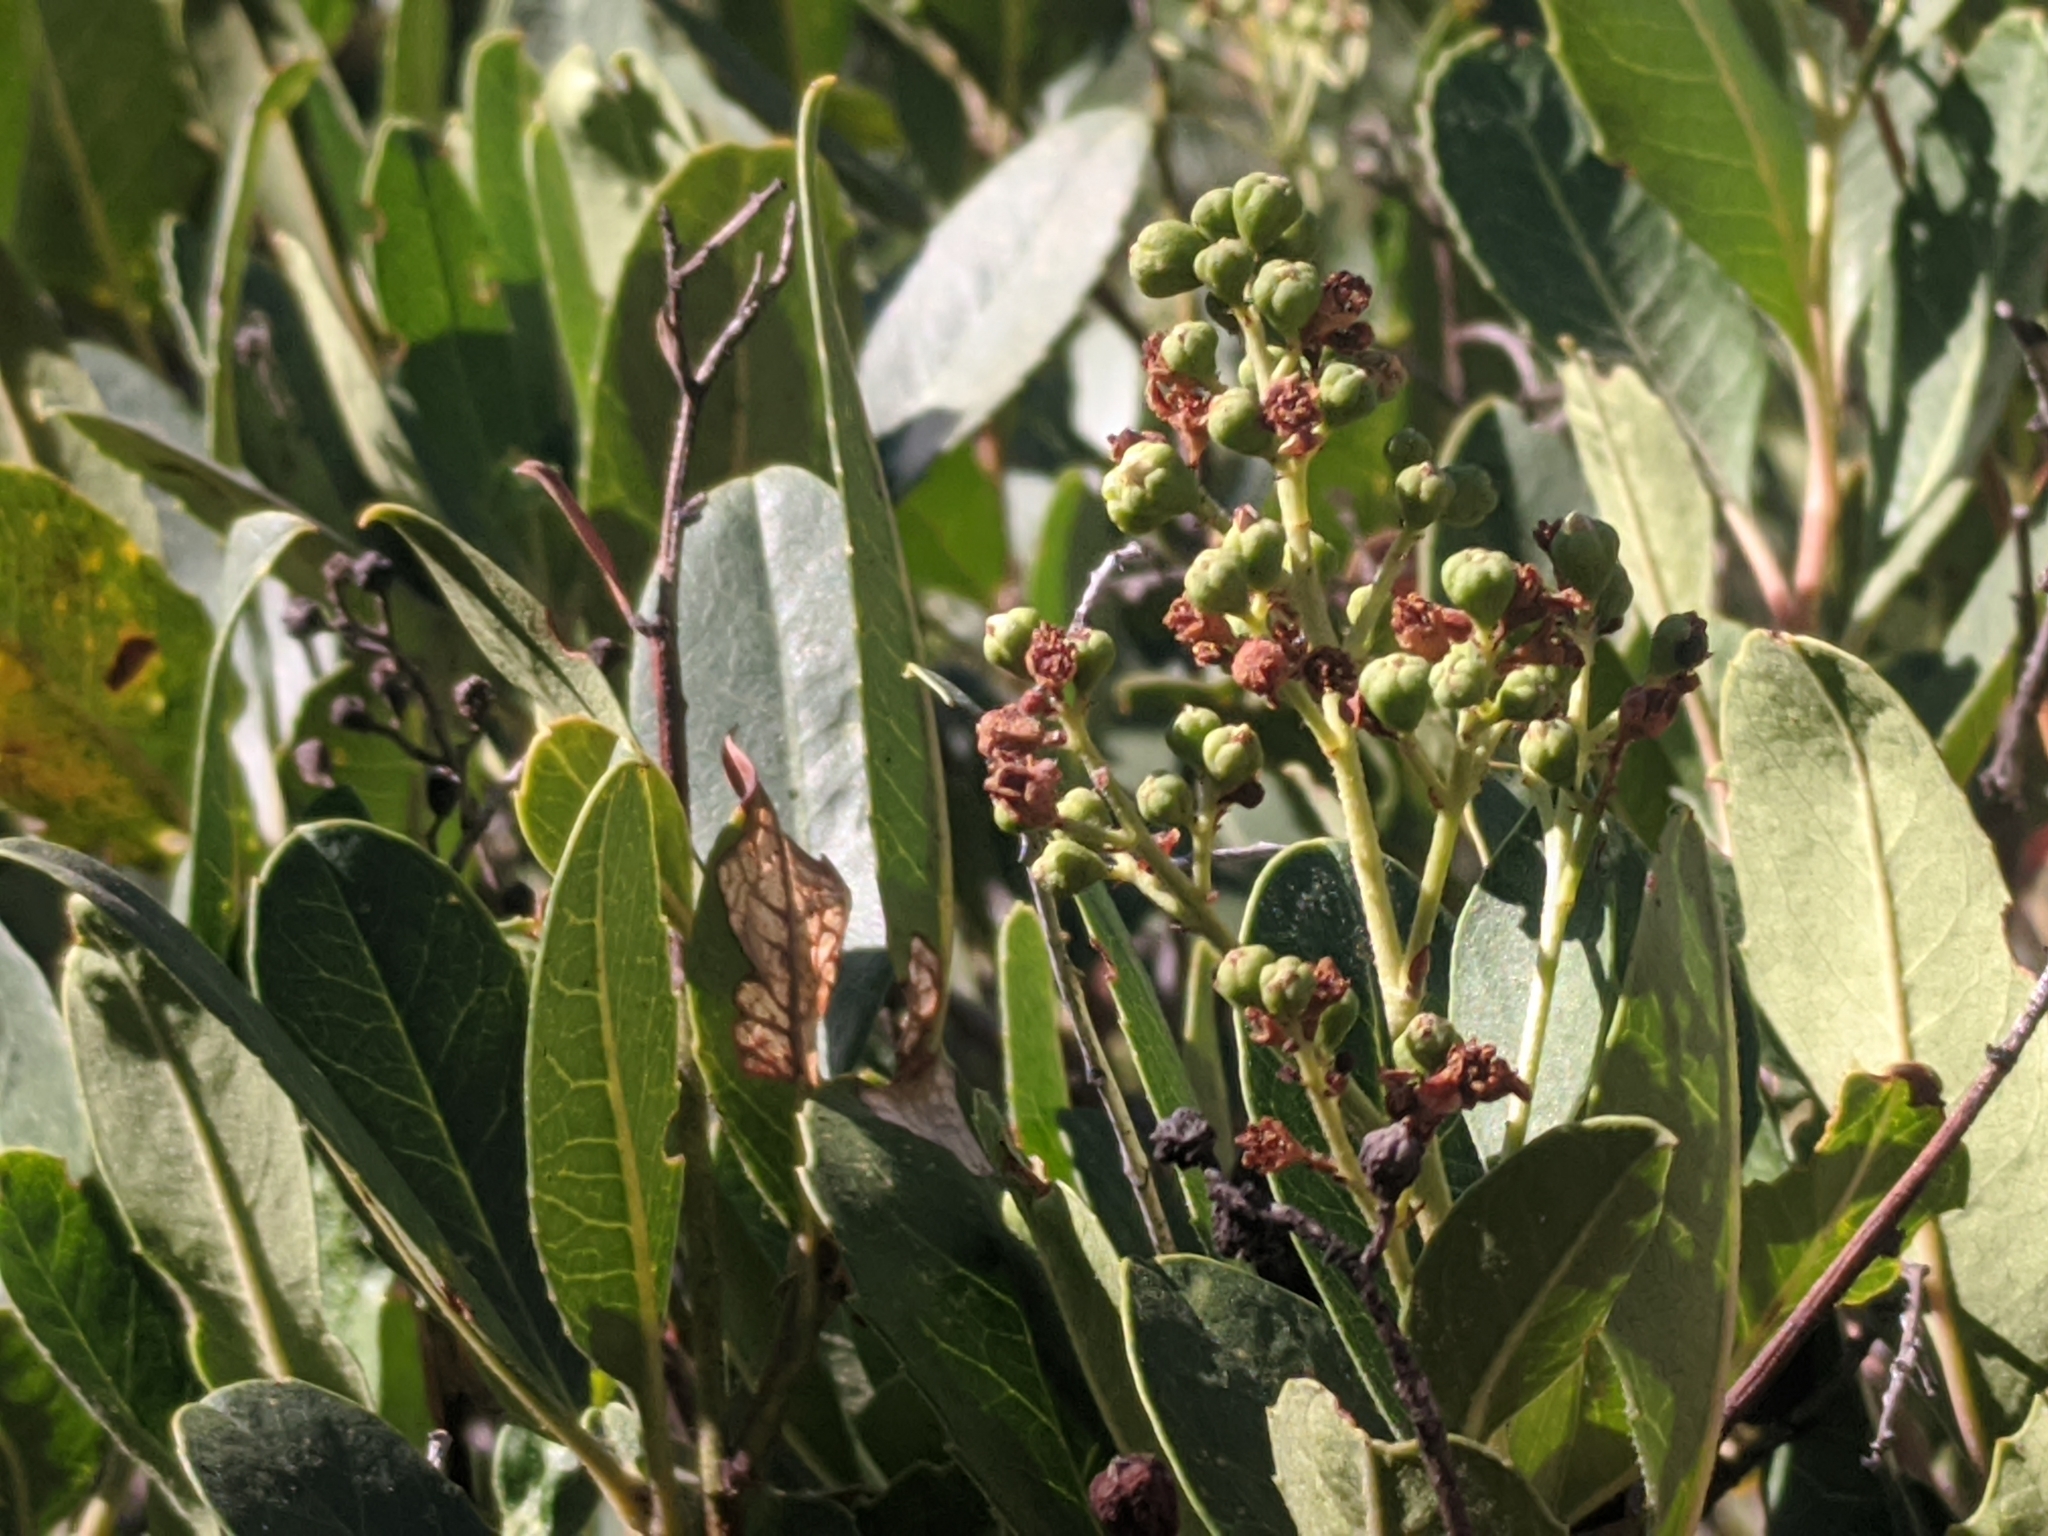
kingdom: Plantae
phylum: Tracheophyta
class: Magnoliopsida
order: Rosales
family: Rosaceae
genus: Heteromeles
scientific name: Heteromeles arbutifolia
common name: California-holly
